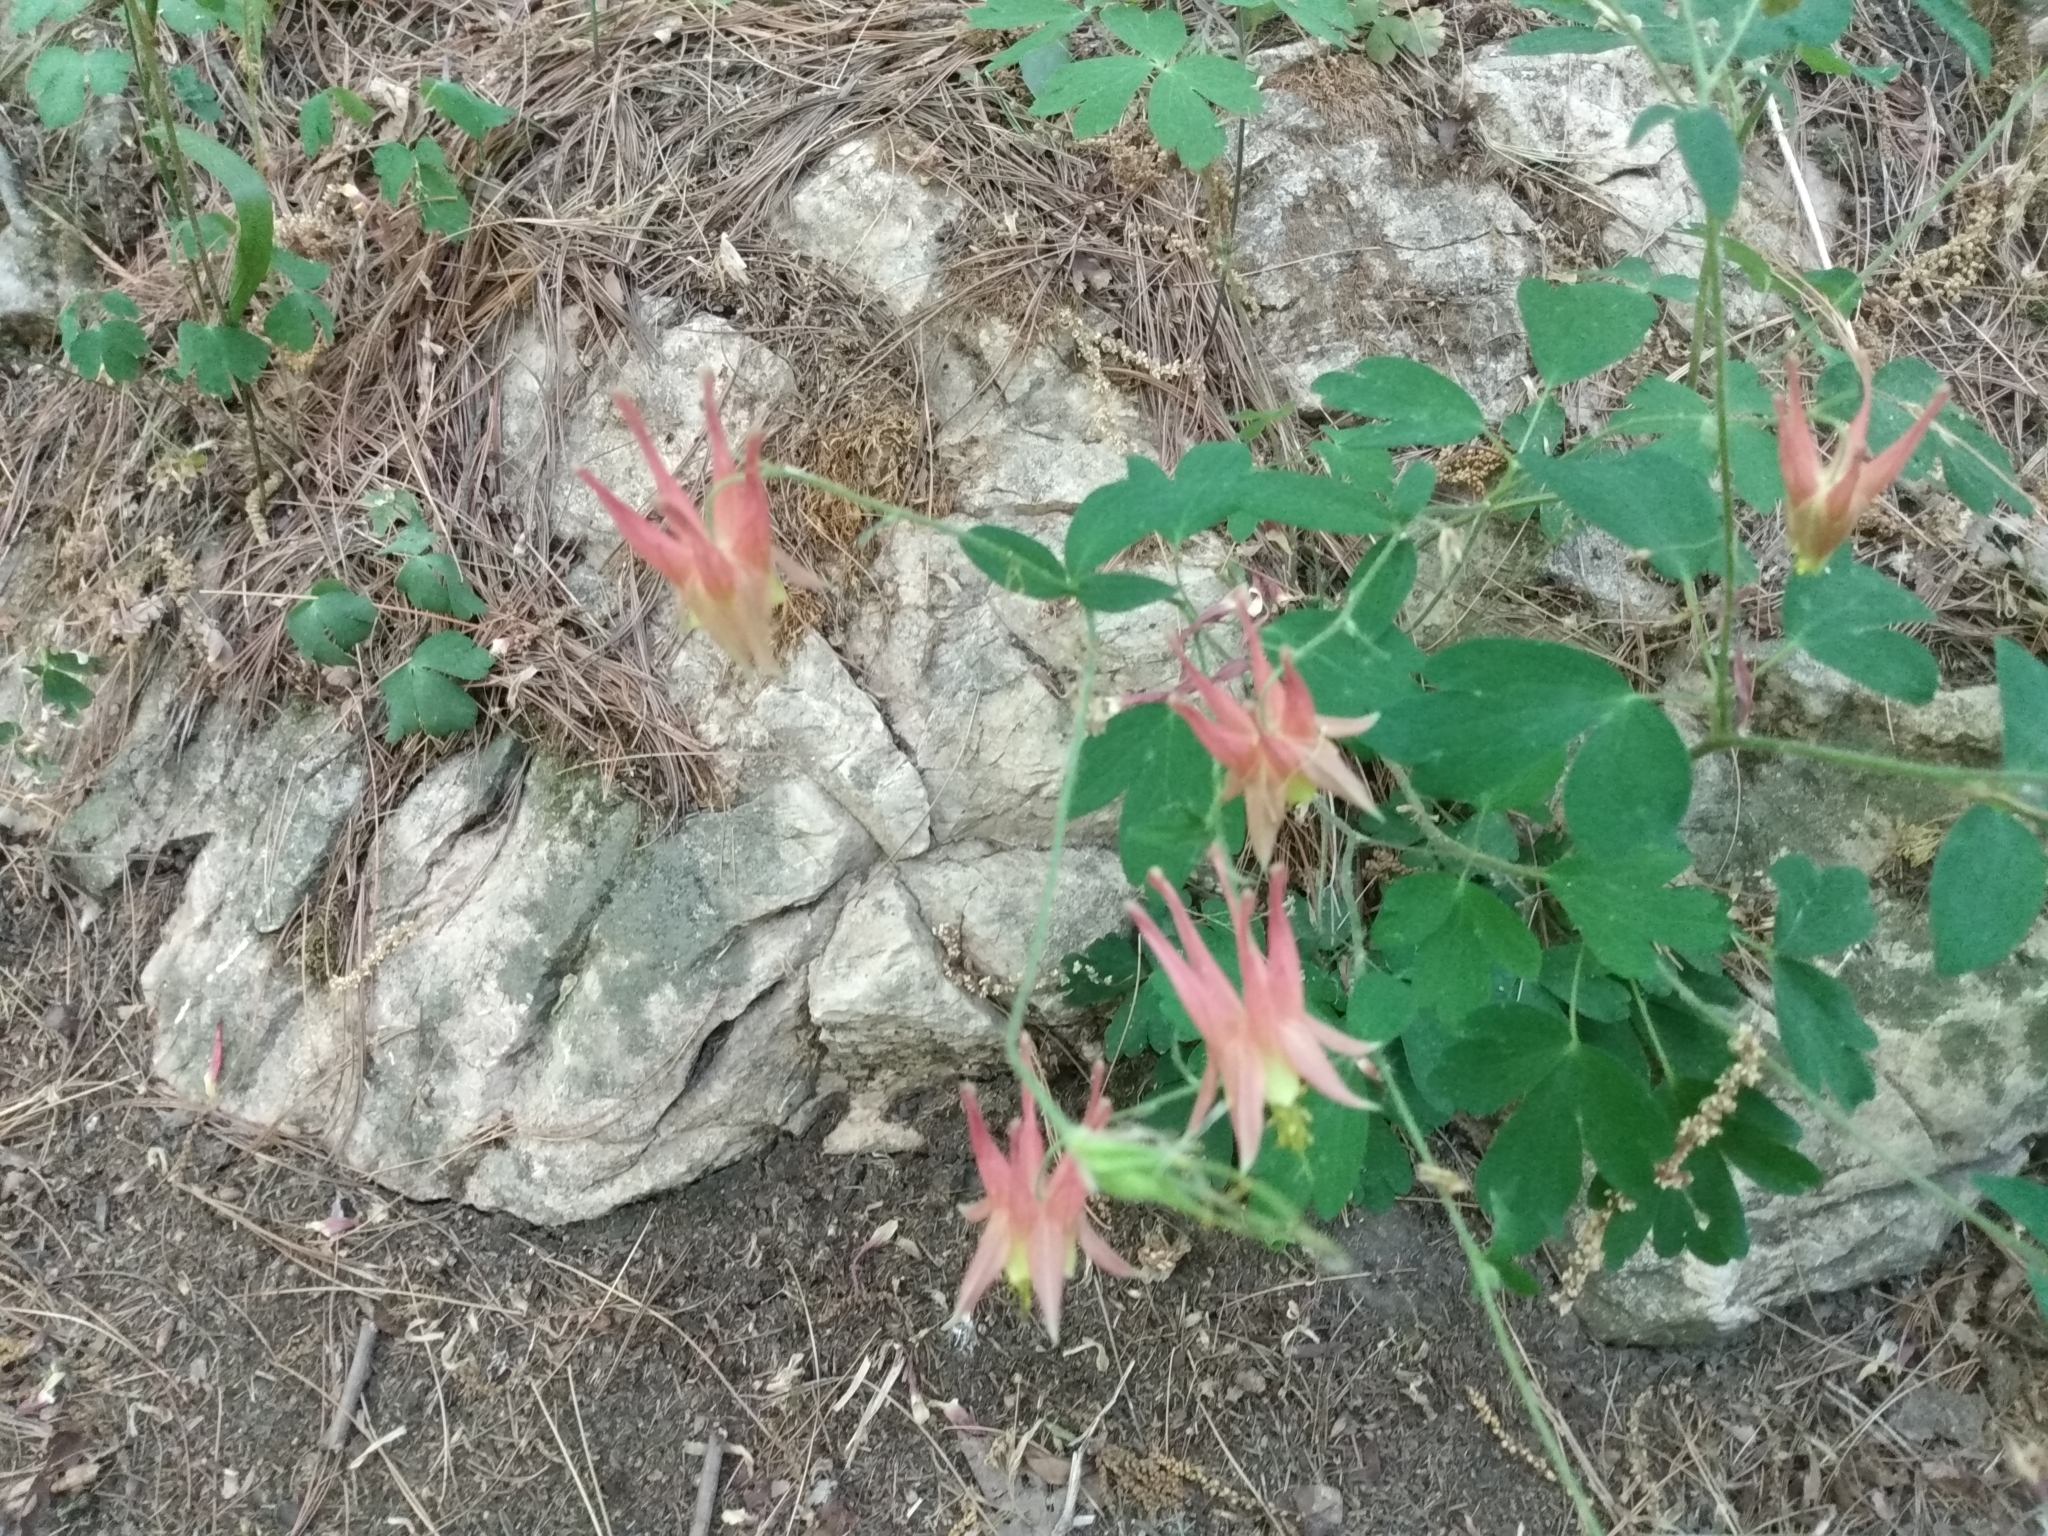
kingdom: Plantae
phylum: Tracheophyta
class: Magnoliopsida
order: Ranunculales
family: Ranunculaceae
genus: Aquilegia
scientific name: Aquilegia canadensis
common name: American columbine
